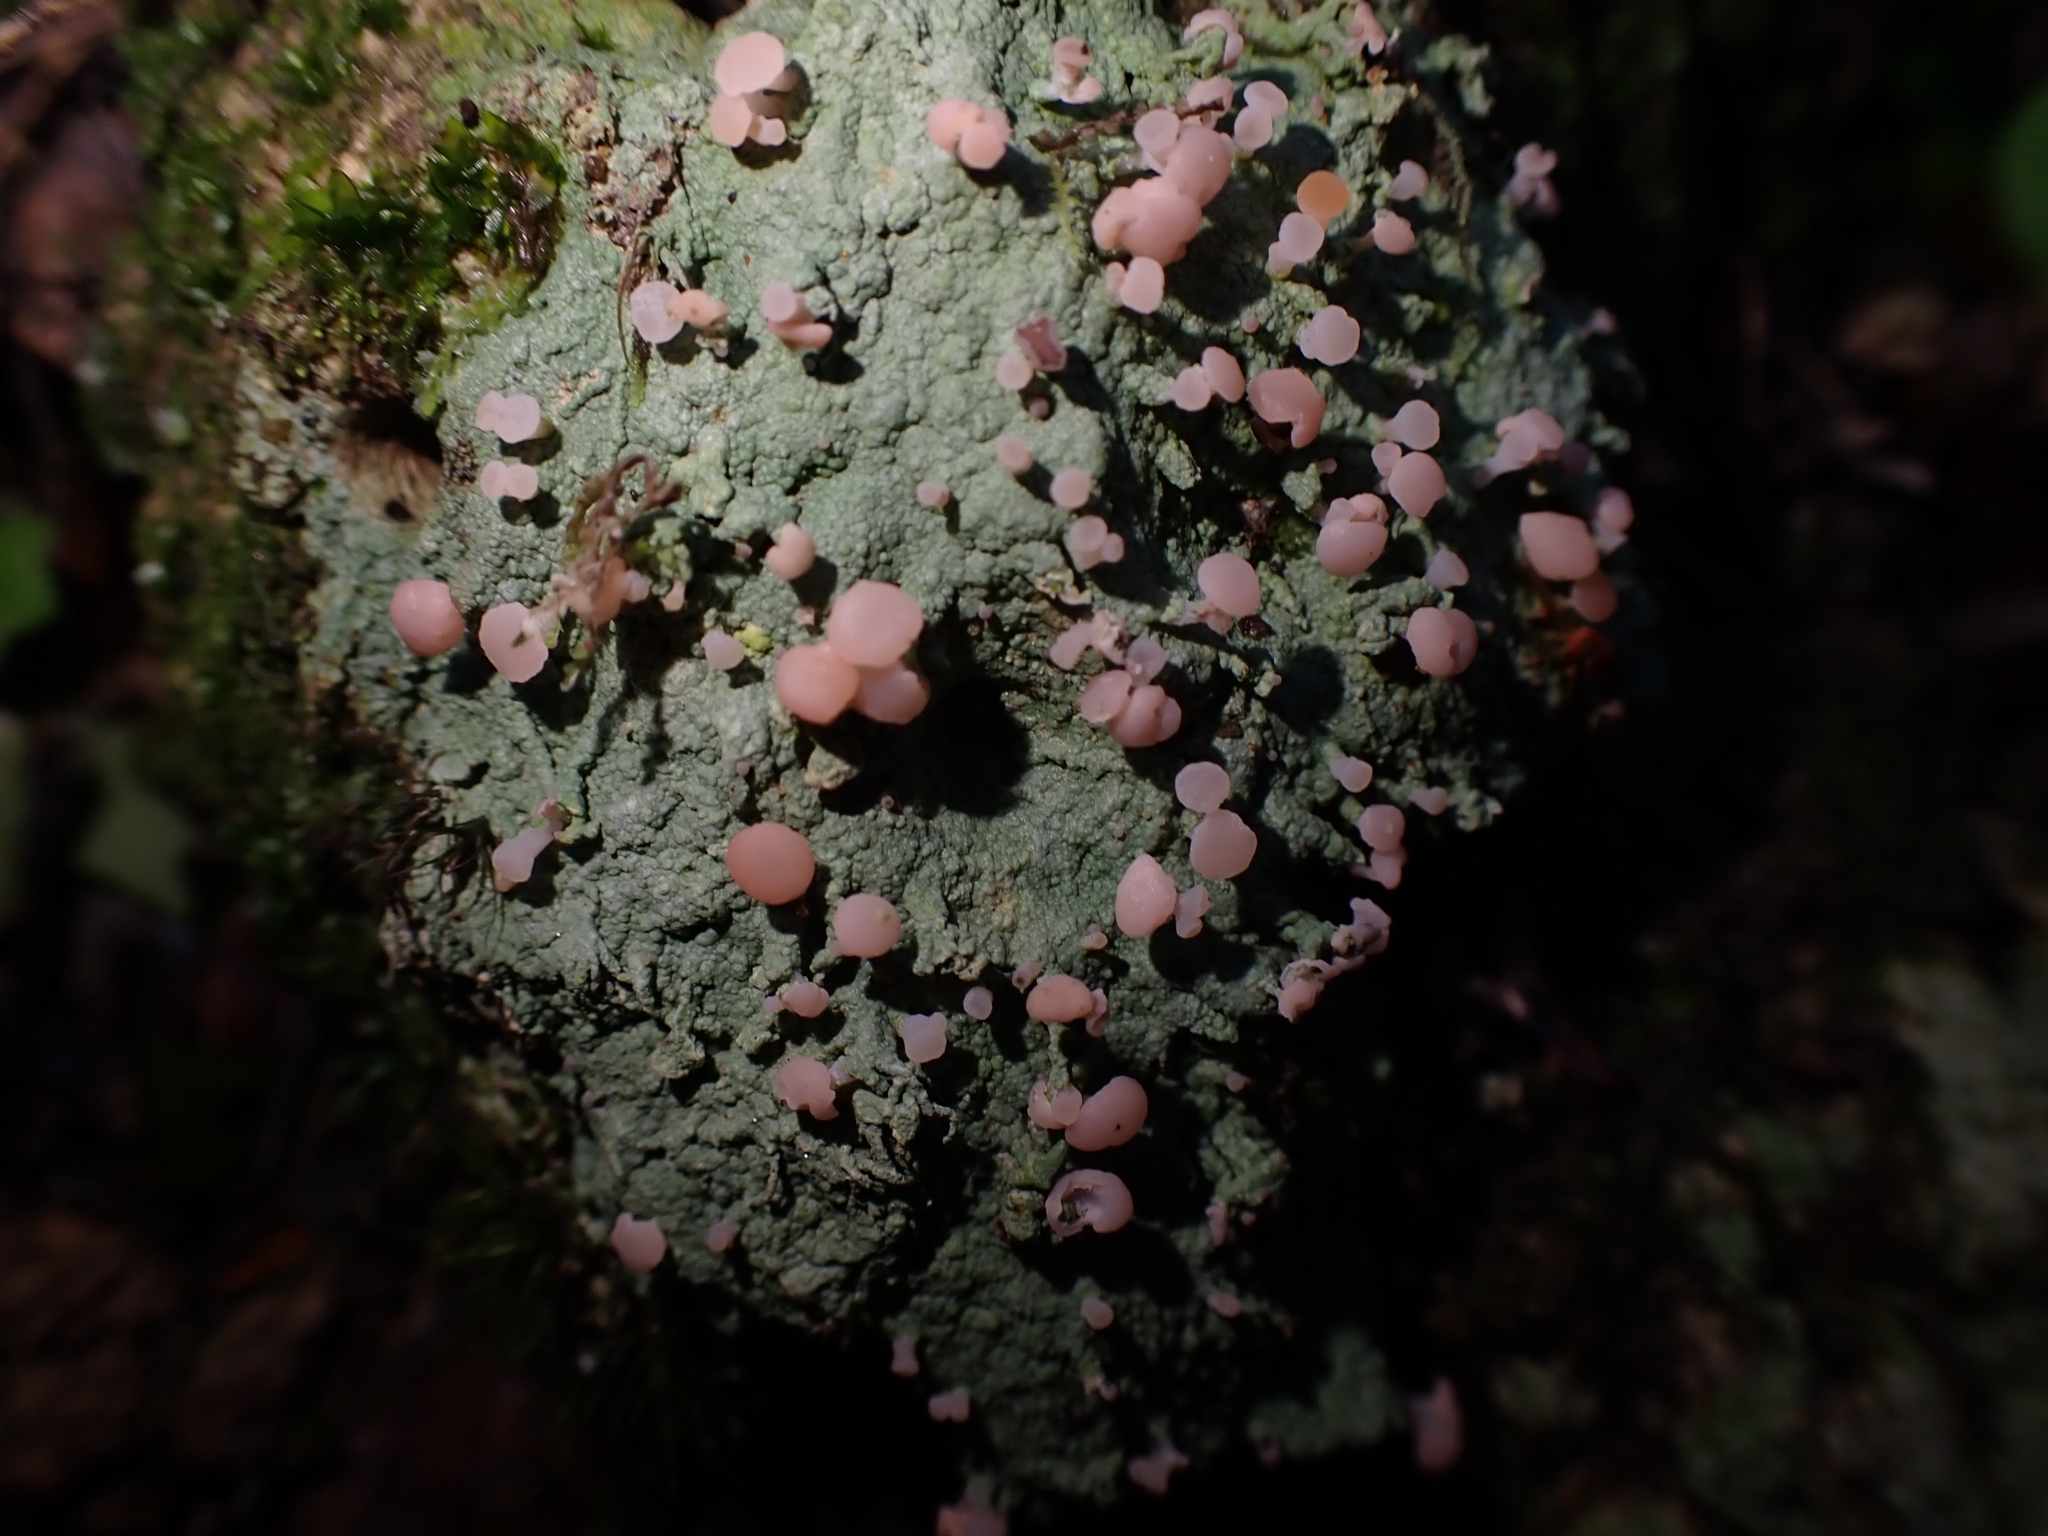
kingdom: Fungi
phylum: Ascomycota
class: Lecanoromycetes
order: Baeomycetales
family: Baeomycetaceae
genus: Baeomyces
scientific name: Baeomyces heteromorphus
